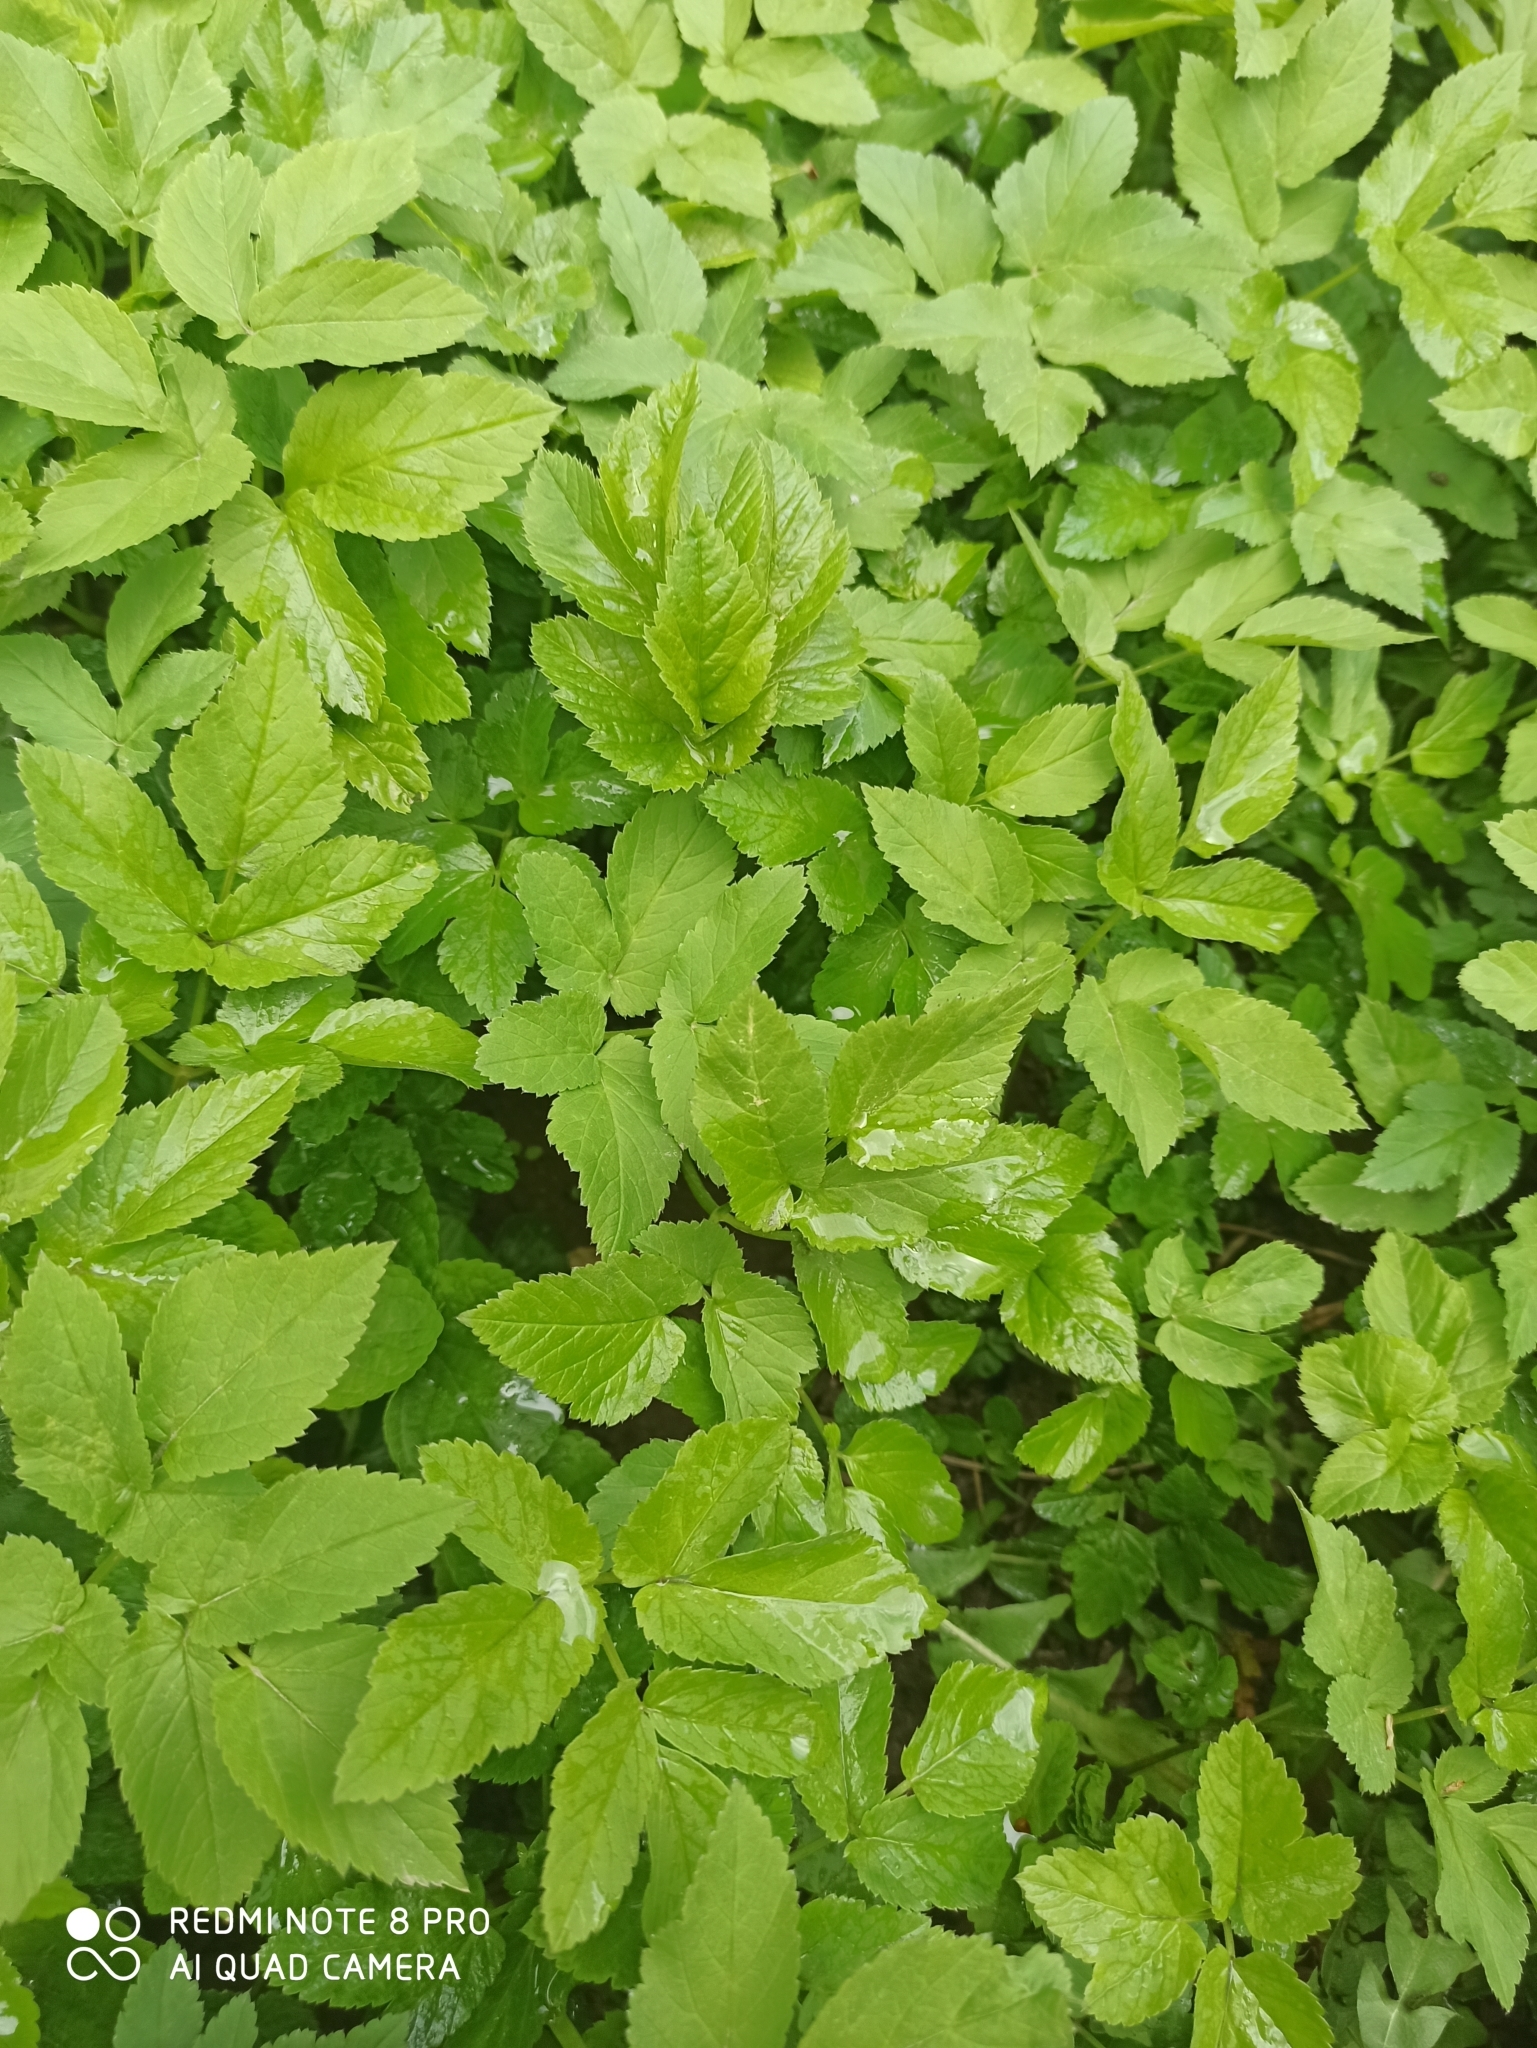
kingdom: Plantae
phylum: Tracheophyta
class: Magnoliopsida
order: Apiales
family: Apiaceae
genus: Aegopodium
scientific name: Aegopodium podagraria
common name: Ground-elder
